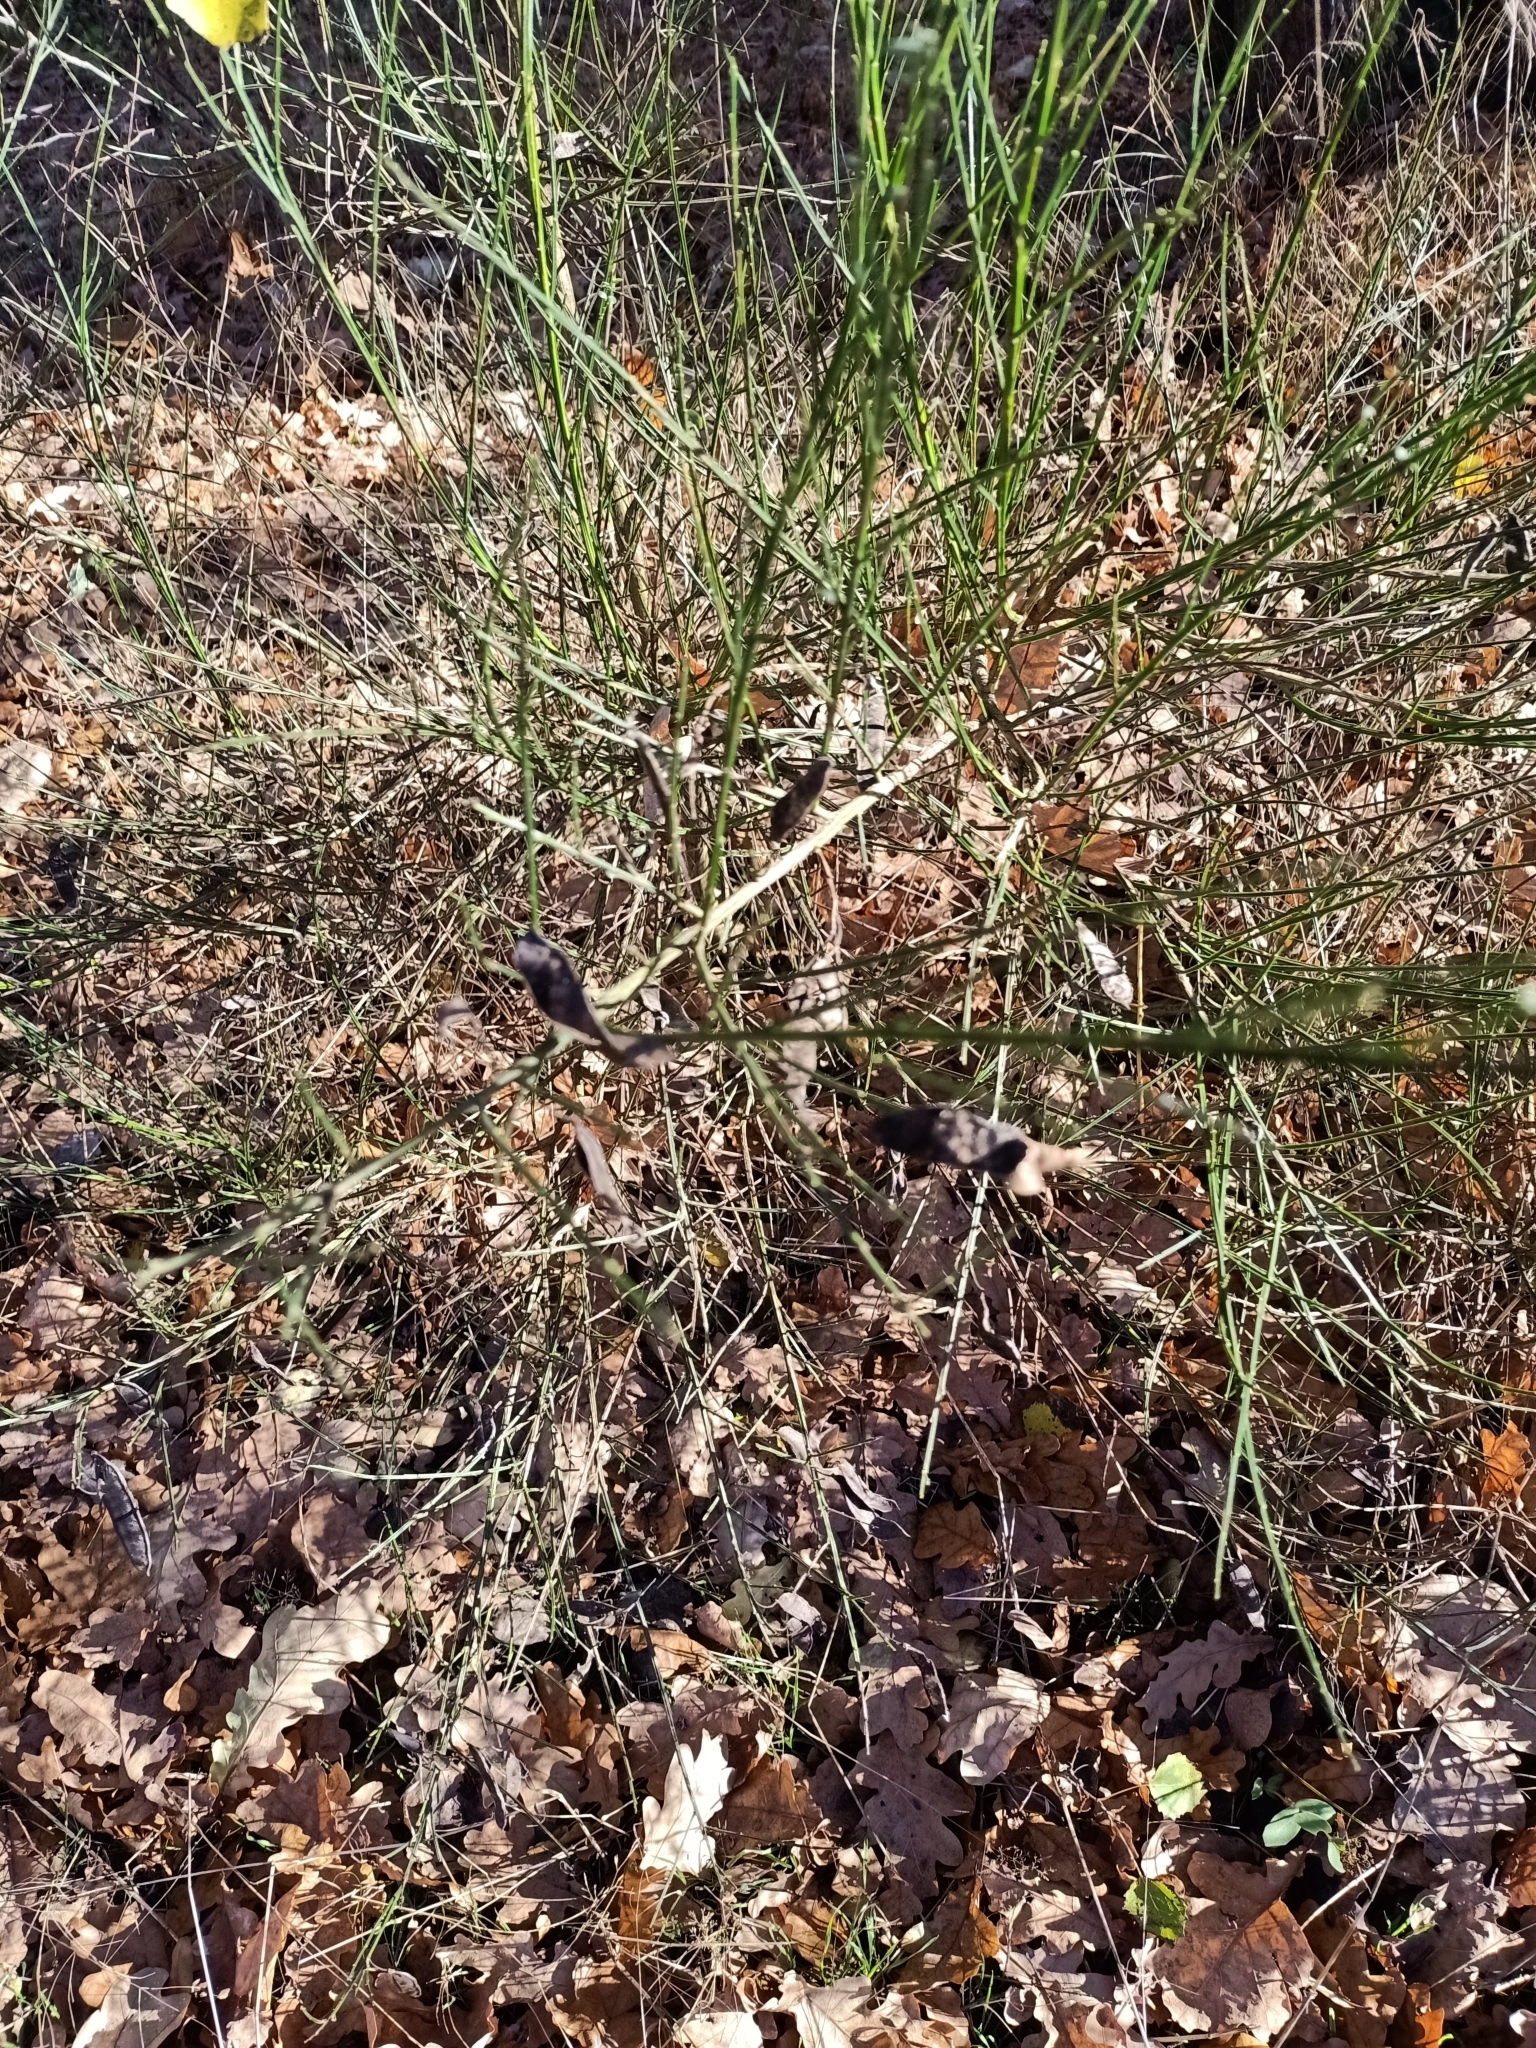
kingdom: Plantae
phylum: Tracheophyta
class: Magnoliopsida
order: Fabales
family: Fabaceae
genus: Cytisus
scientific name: Cytisus scoparius
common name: Scotch broom
